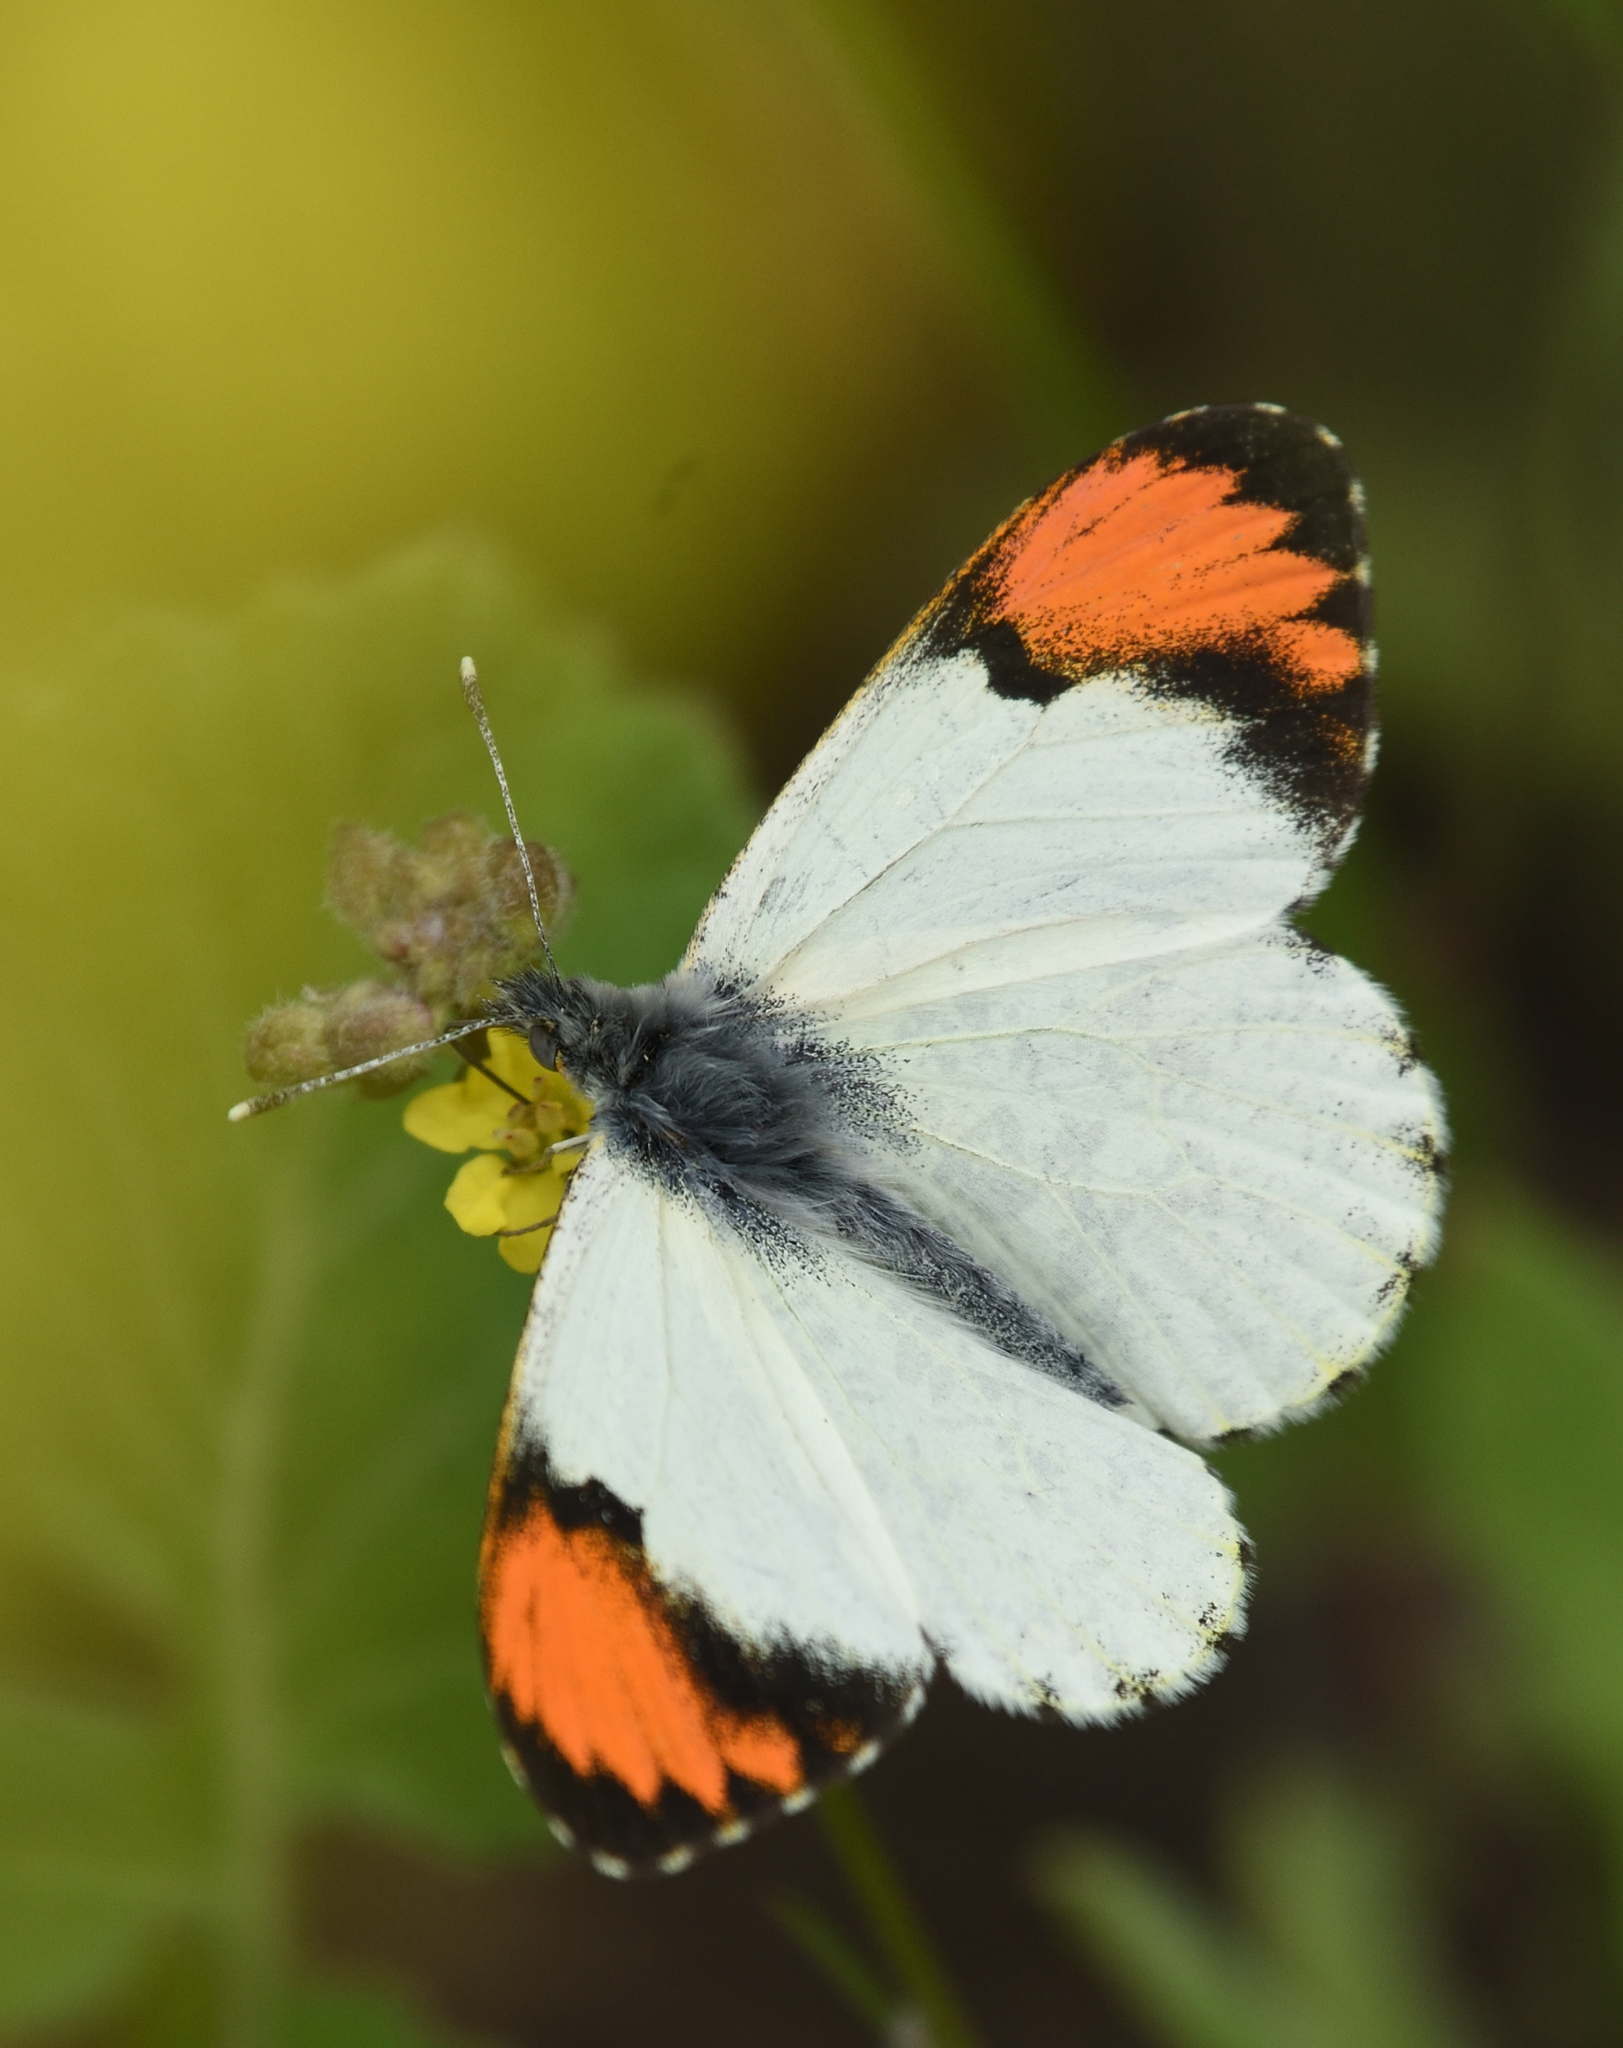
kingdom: Animalia
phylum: Arthropoda
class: Insecta
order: Lepidoptera
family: Pieridae
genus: Anthocharis
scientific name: Anthocharis sara
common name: Sara's orangetip
